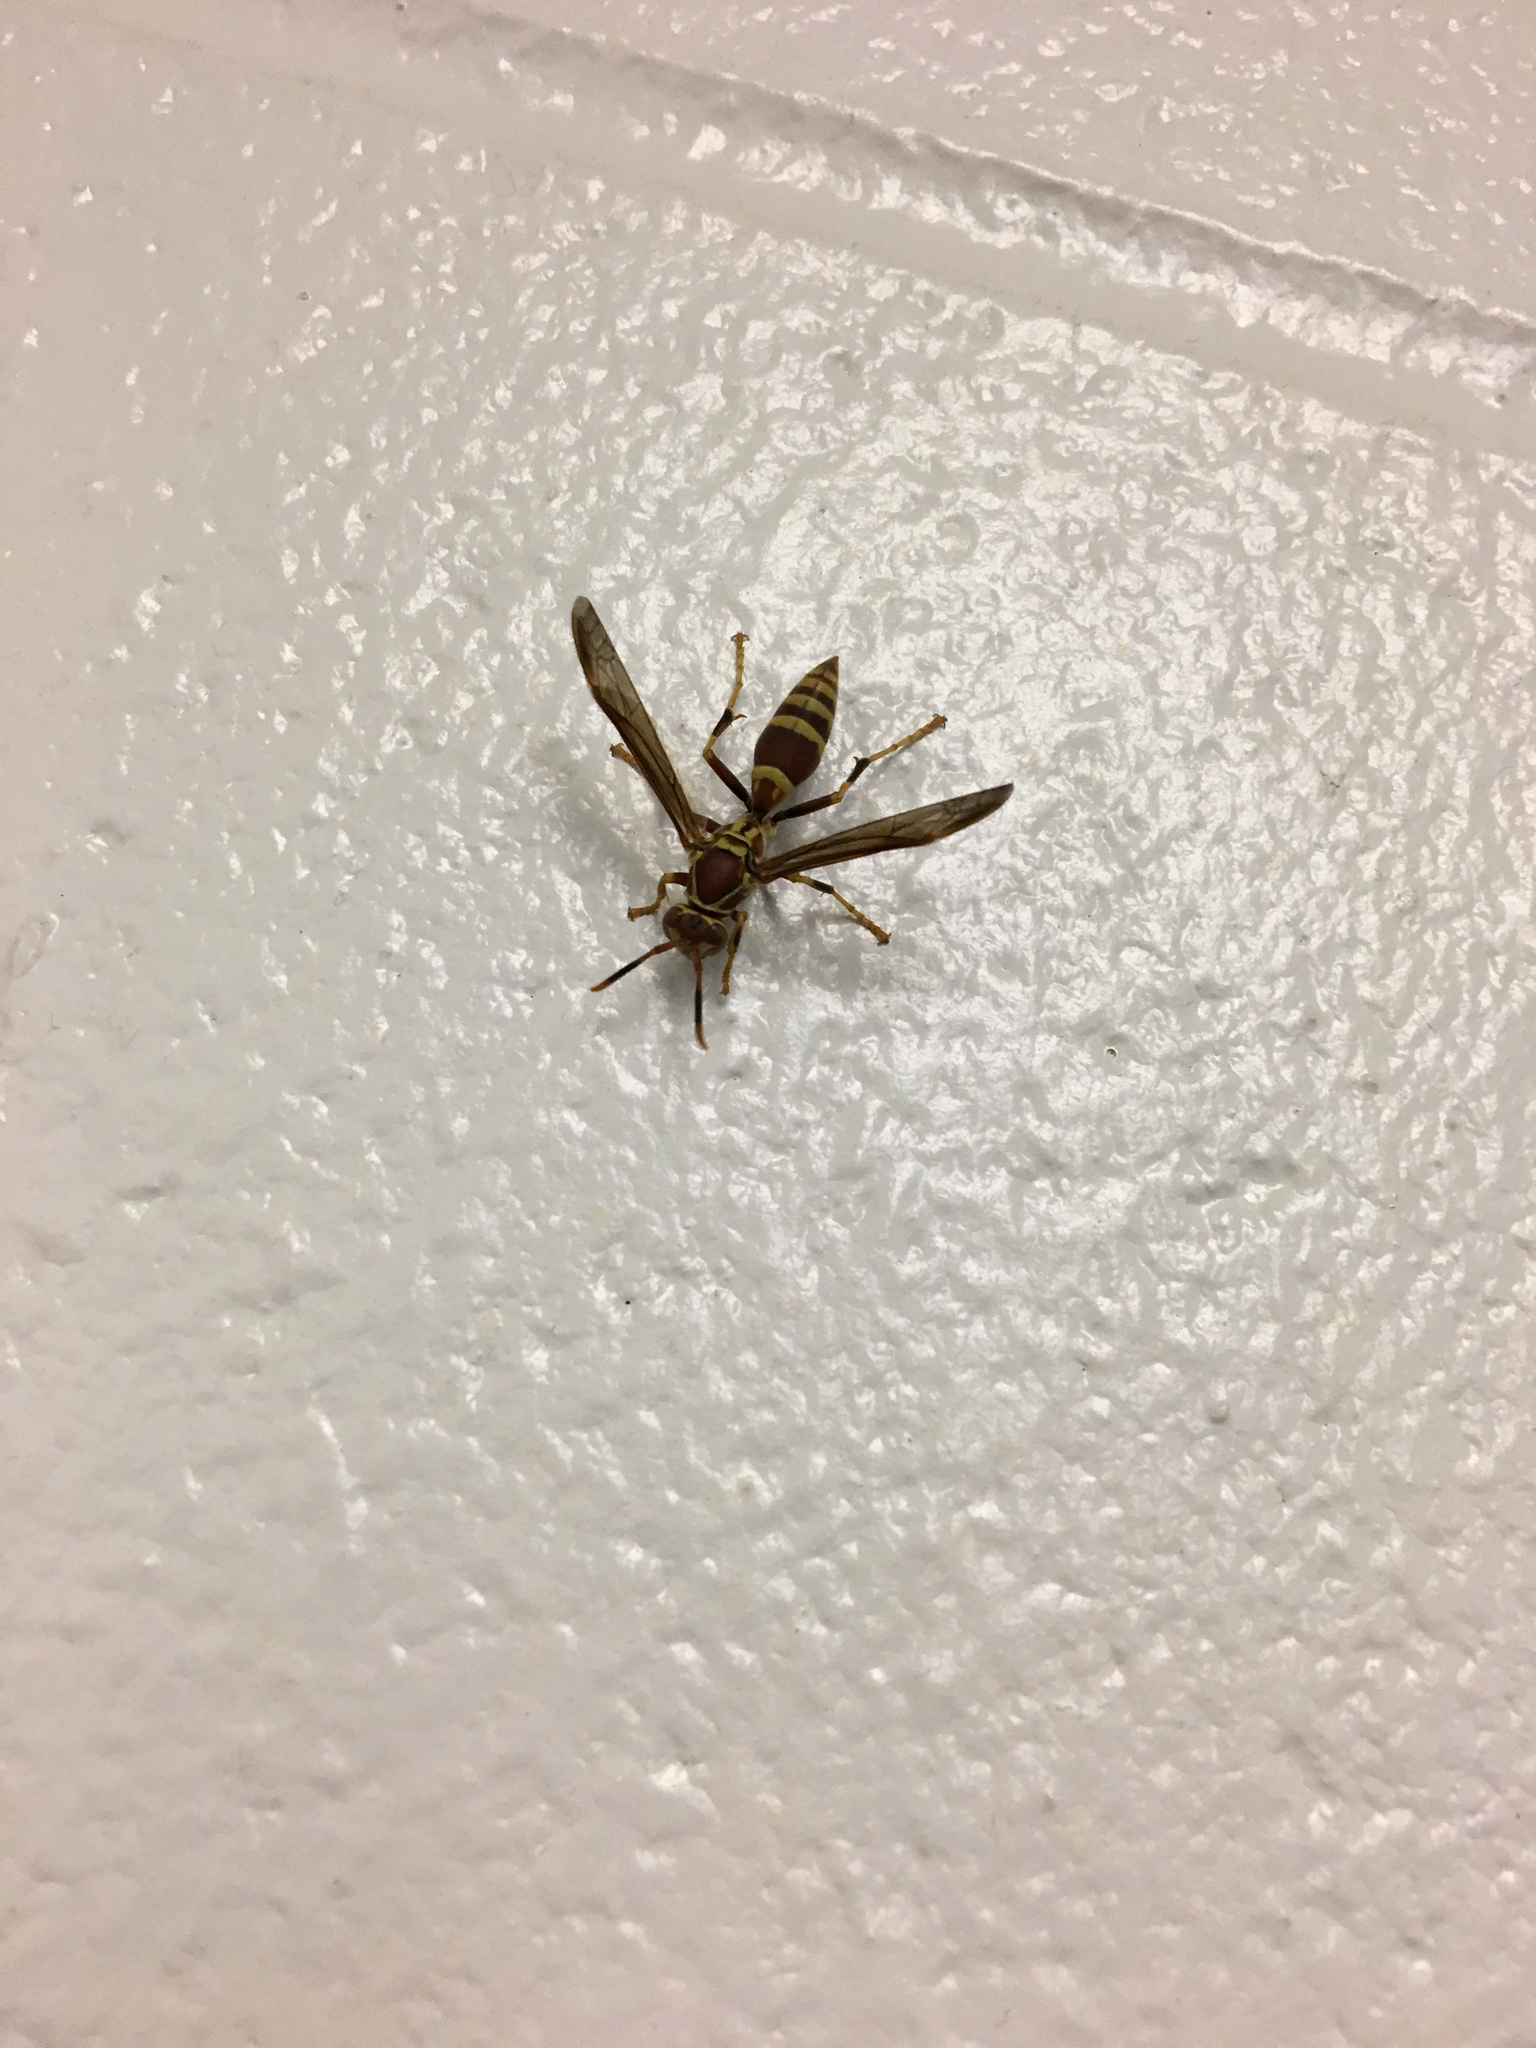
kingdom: Animalia
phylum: Arthropoda
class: Insecta
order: Hymenoptera
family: Eumenidae
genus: Polistes
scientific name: Polistes exclamans
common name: Paper wasp
